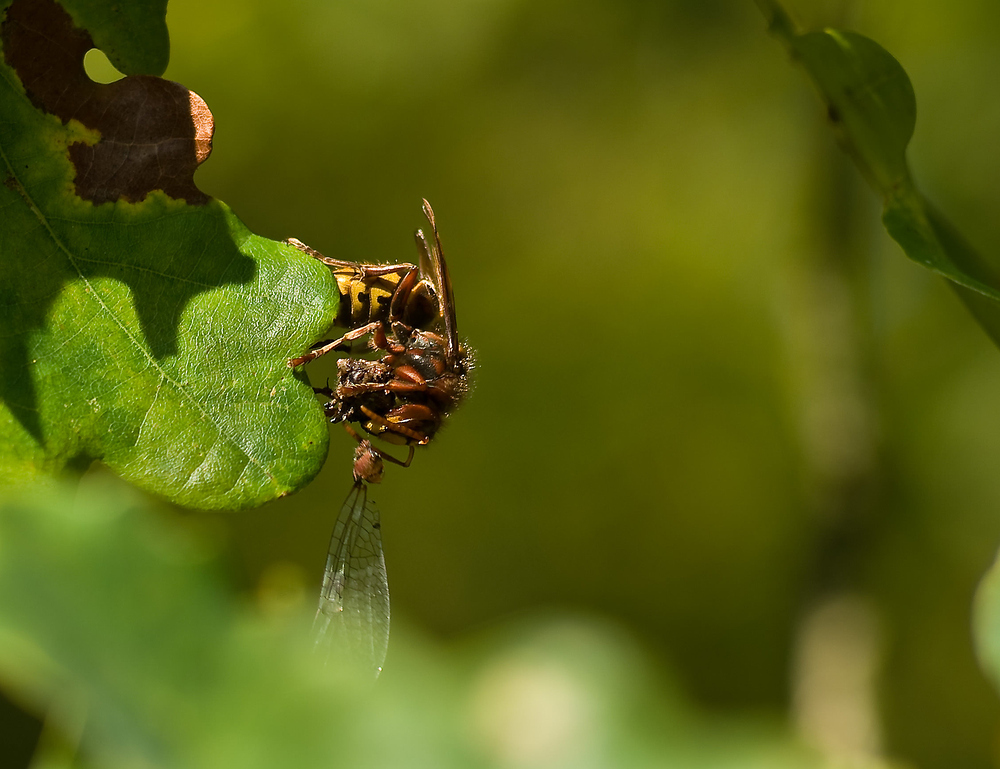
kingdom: Animalia
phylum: Arthropoda
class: Insecta
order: Hymenoptera
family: Vespidae
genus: Vespa
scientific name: Vespa crabro
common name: Hornet
